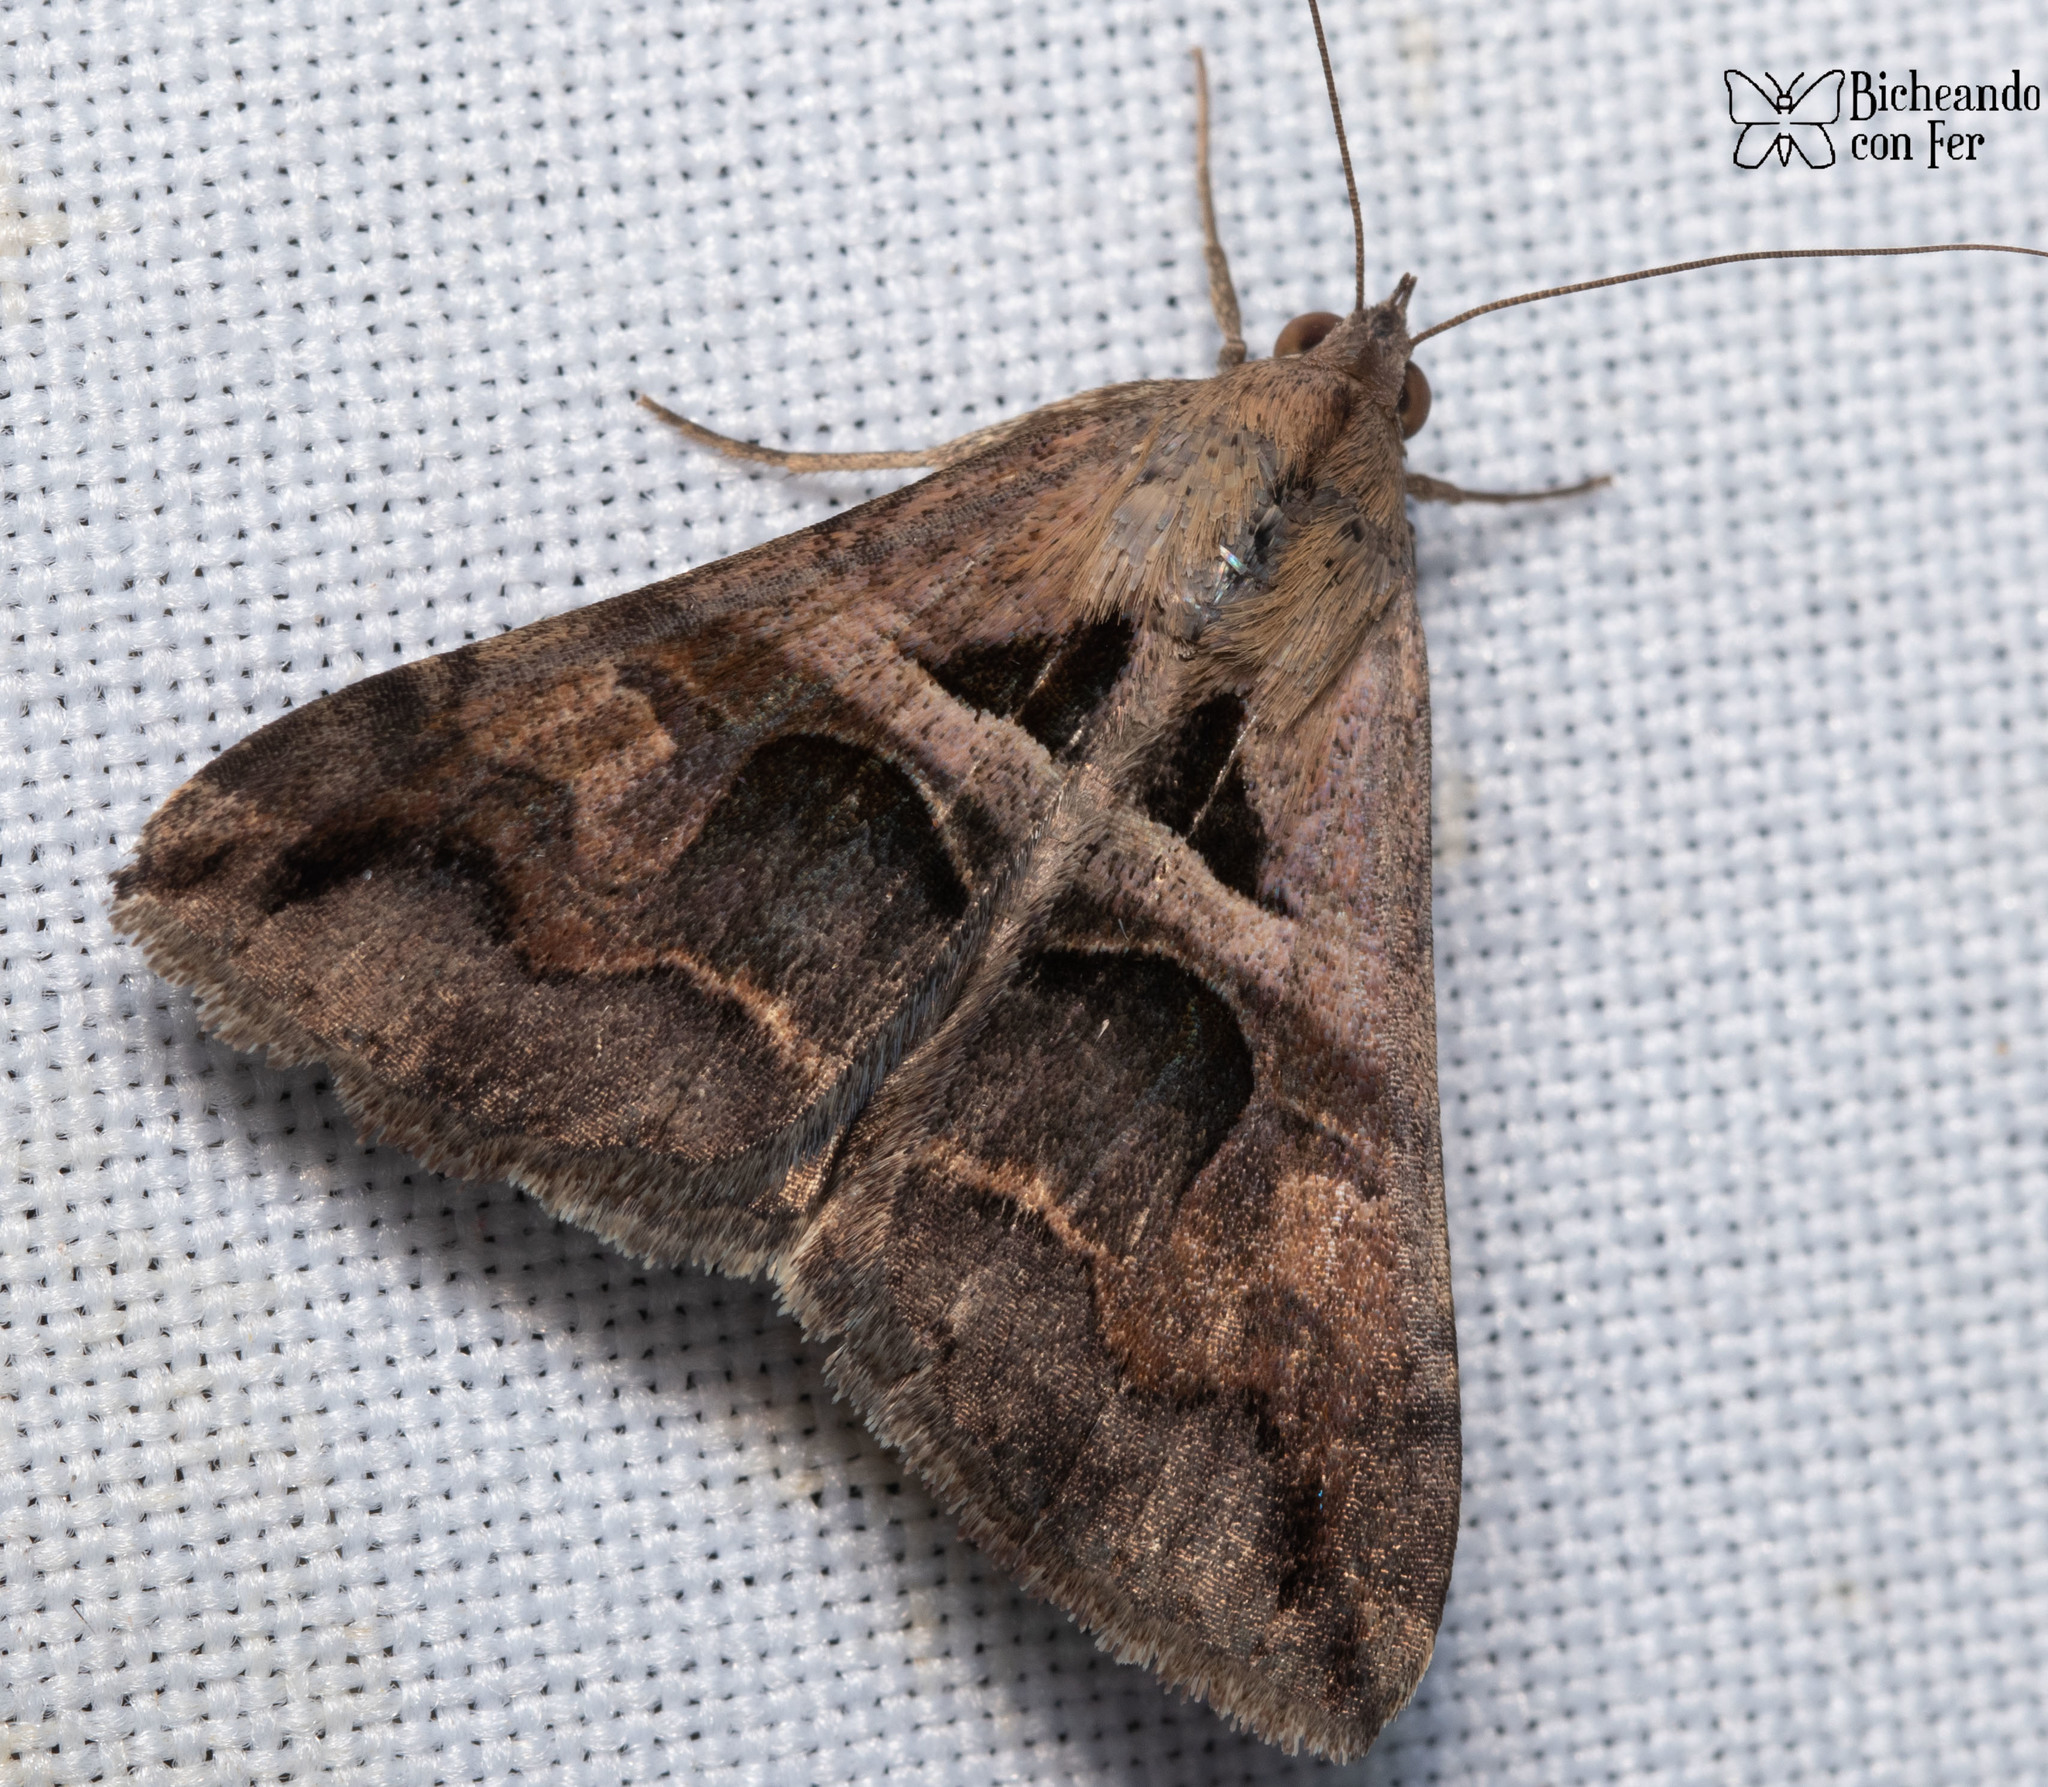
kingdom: Animalia
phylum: Arthropoda
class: Insecta
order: Lepidoptera
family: Erebidae
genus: Melipotis
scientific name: Melipotis cellaris
